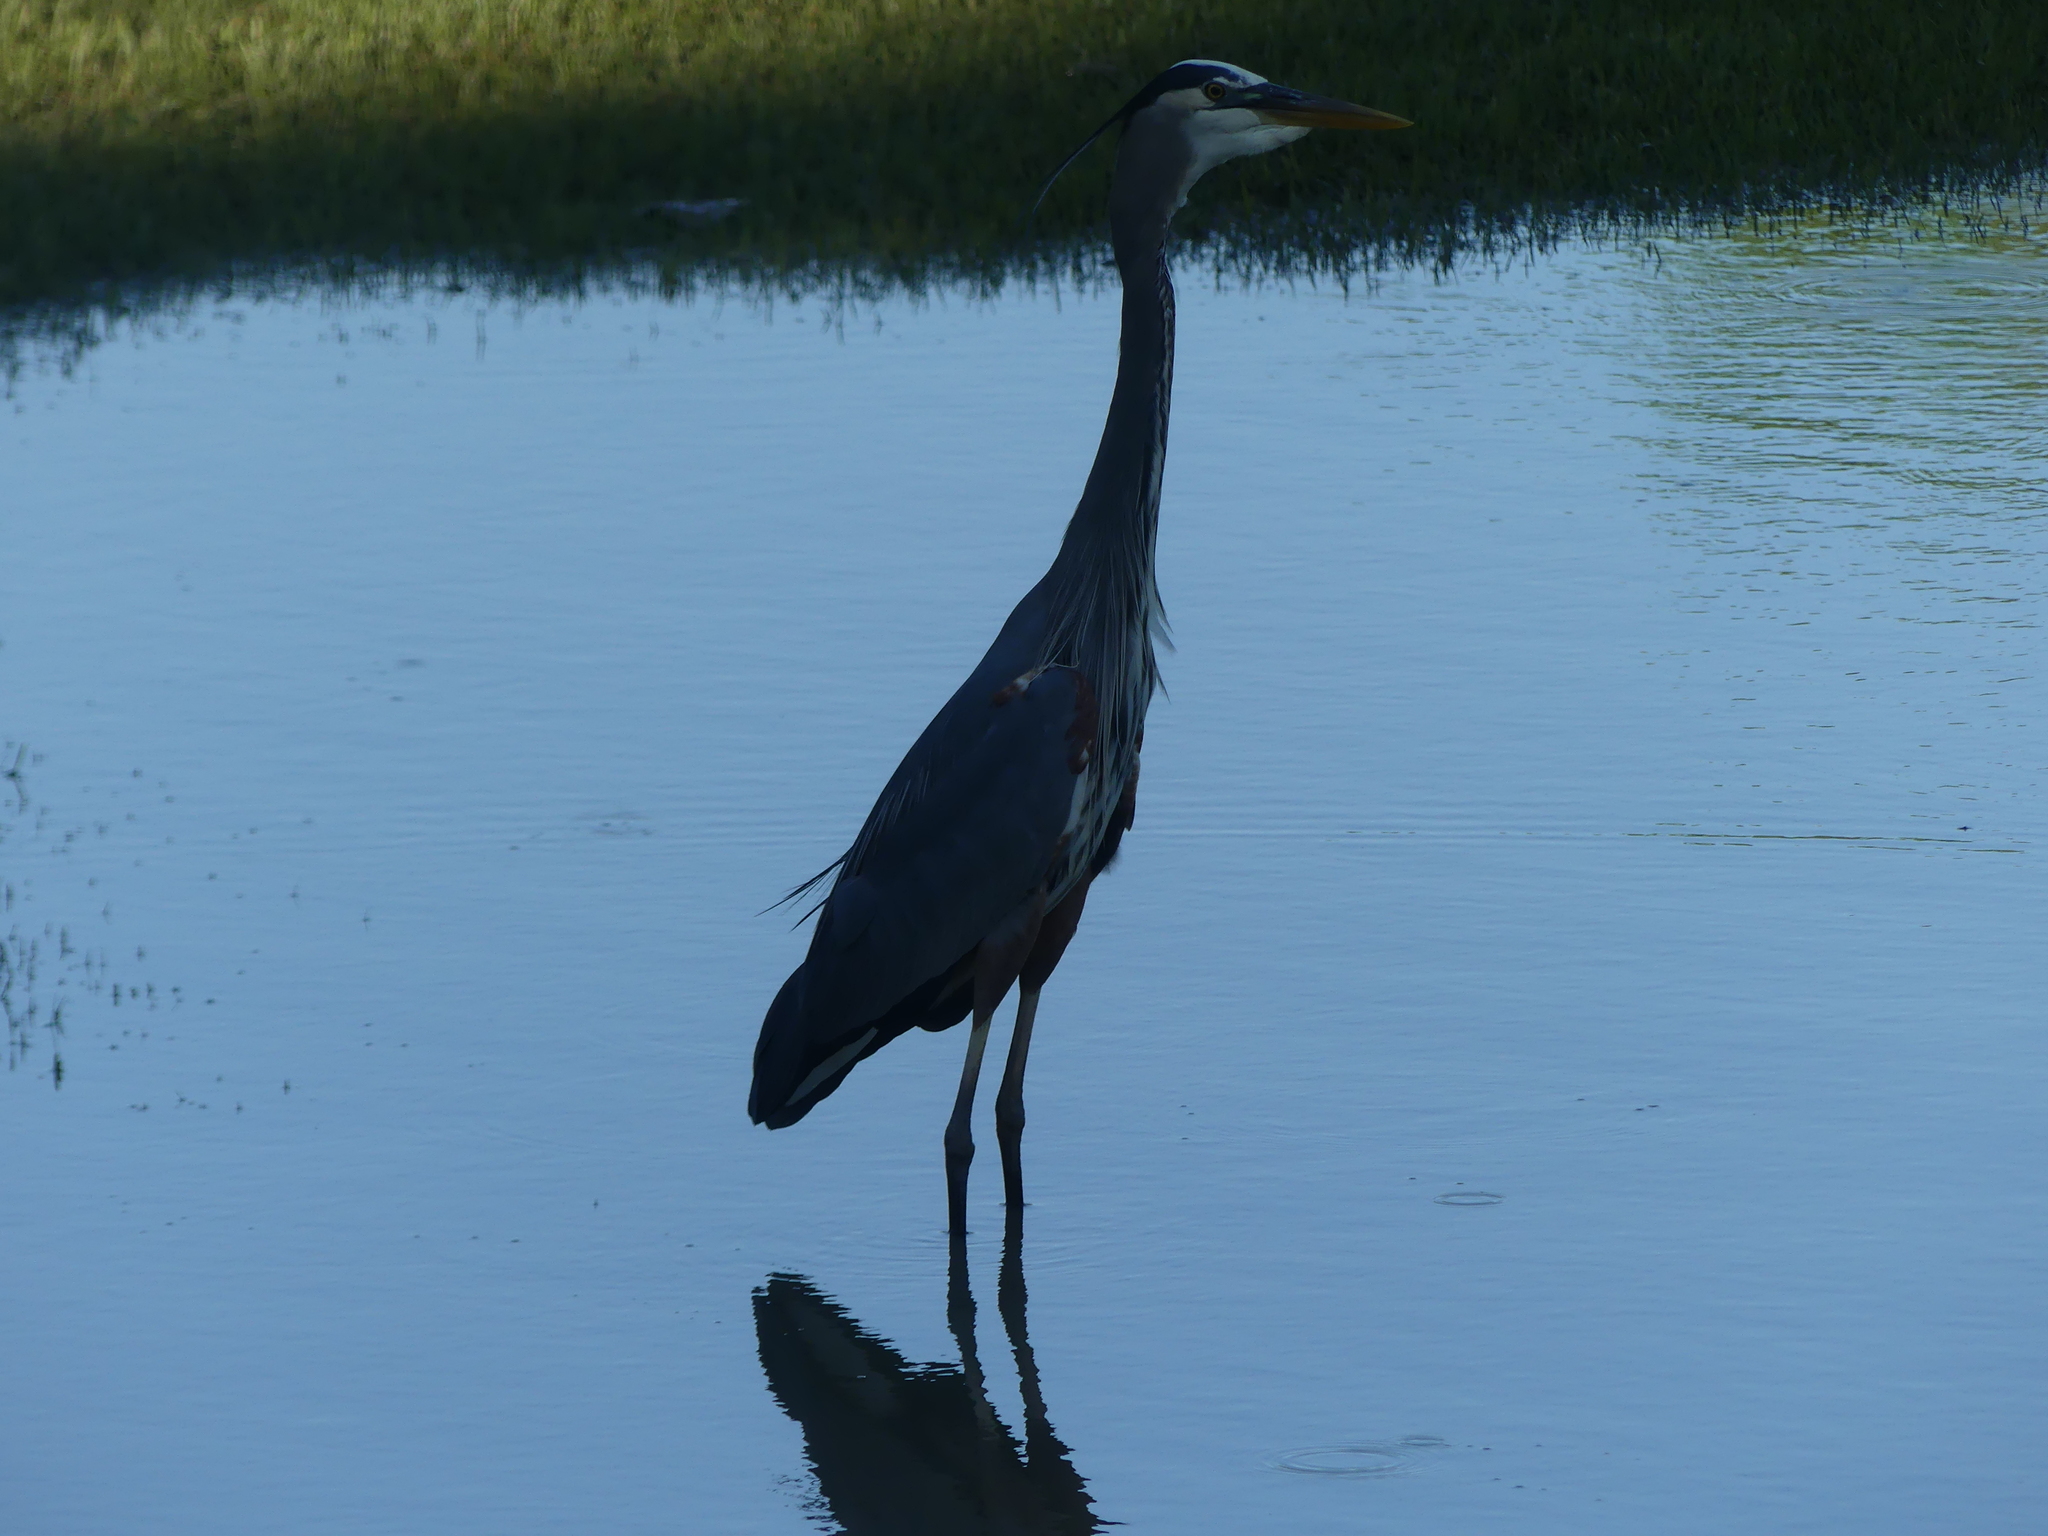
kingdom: Animalia
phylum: Chordata
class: Aves
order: Pelecaniformes
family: Ardeidae
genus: Ardea
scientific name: Ardea herodias
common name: Great blue heron
